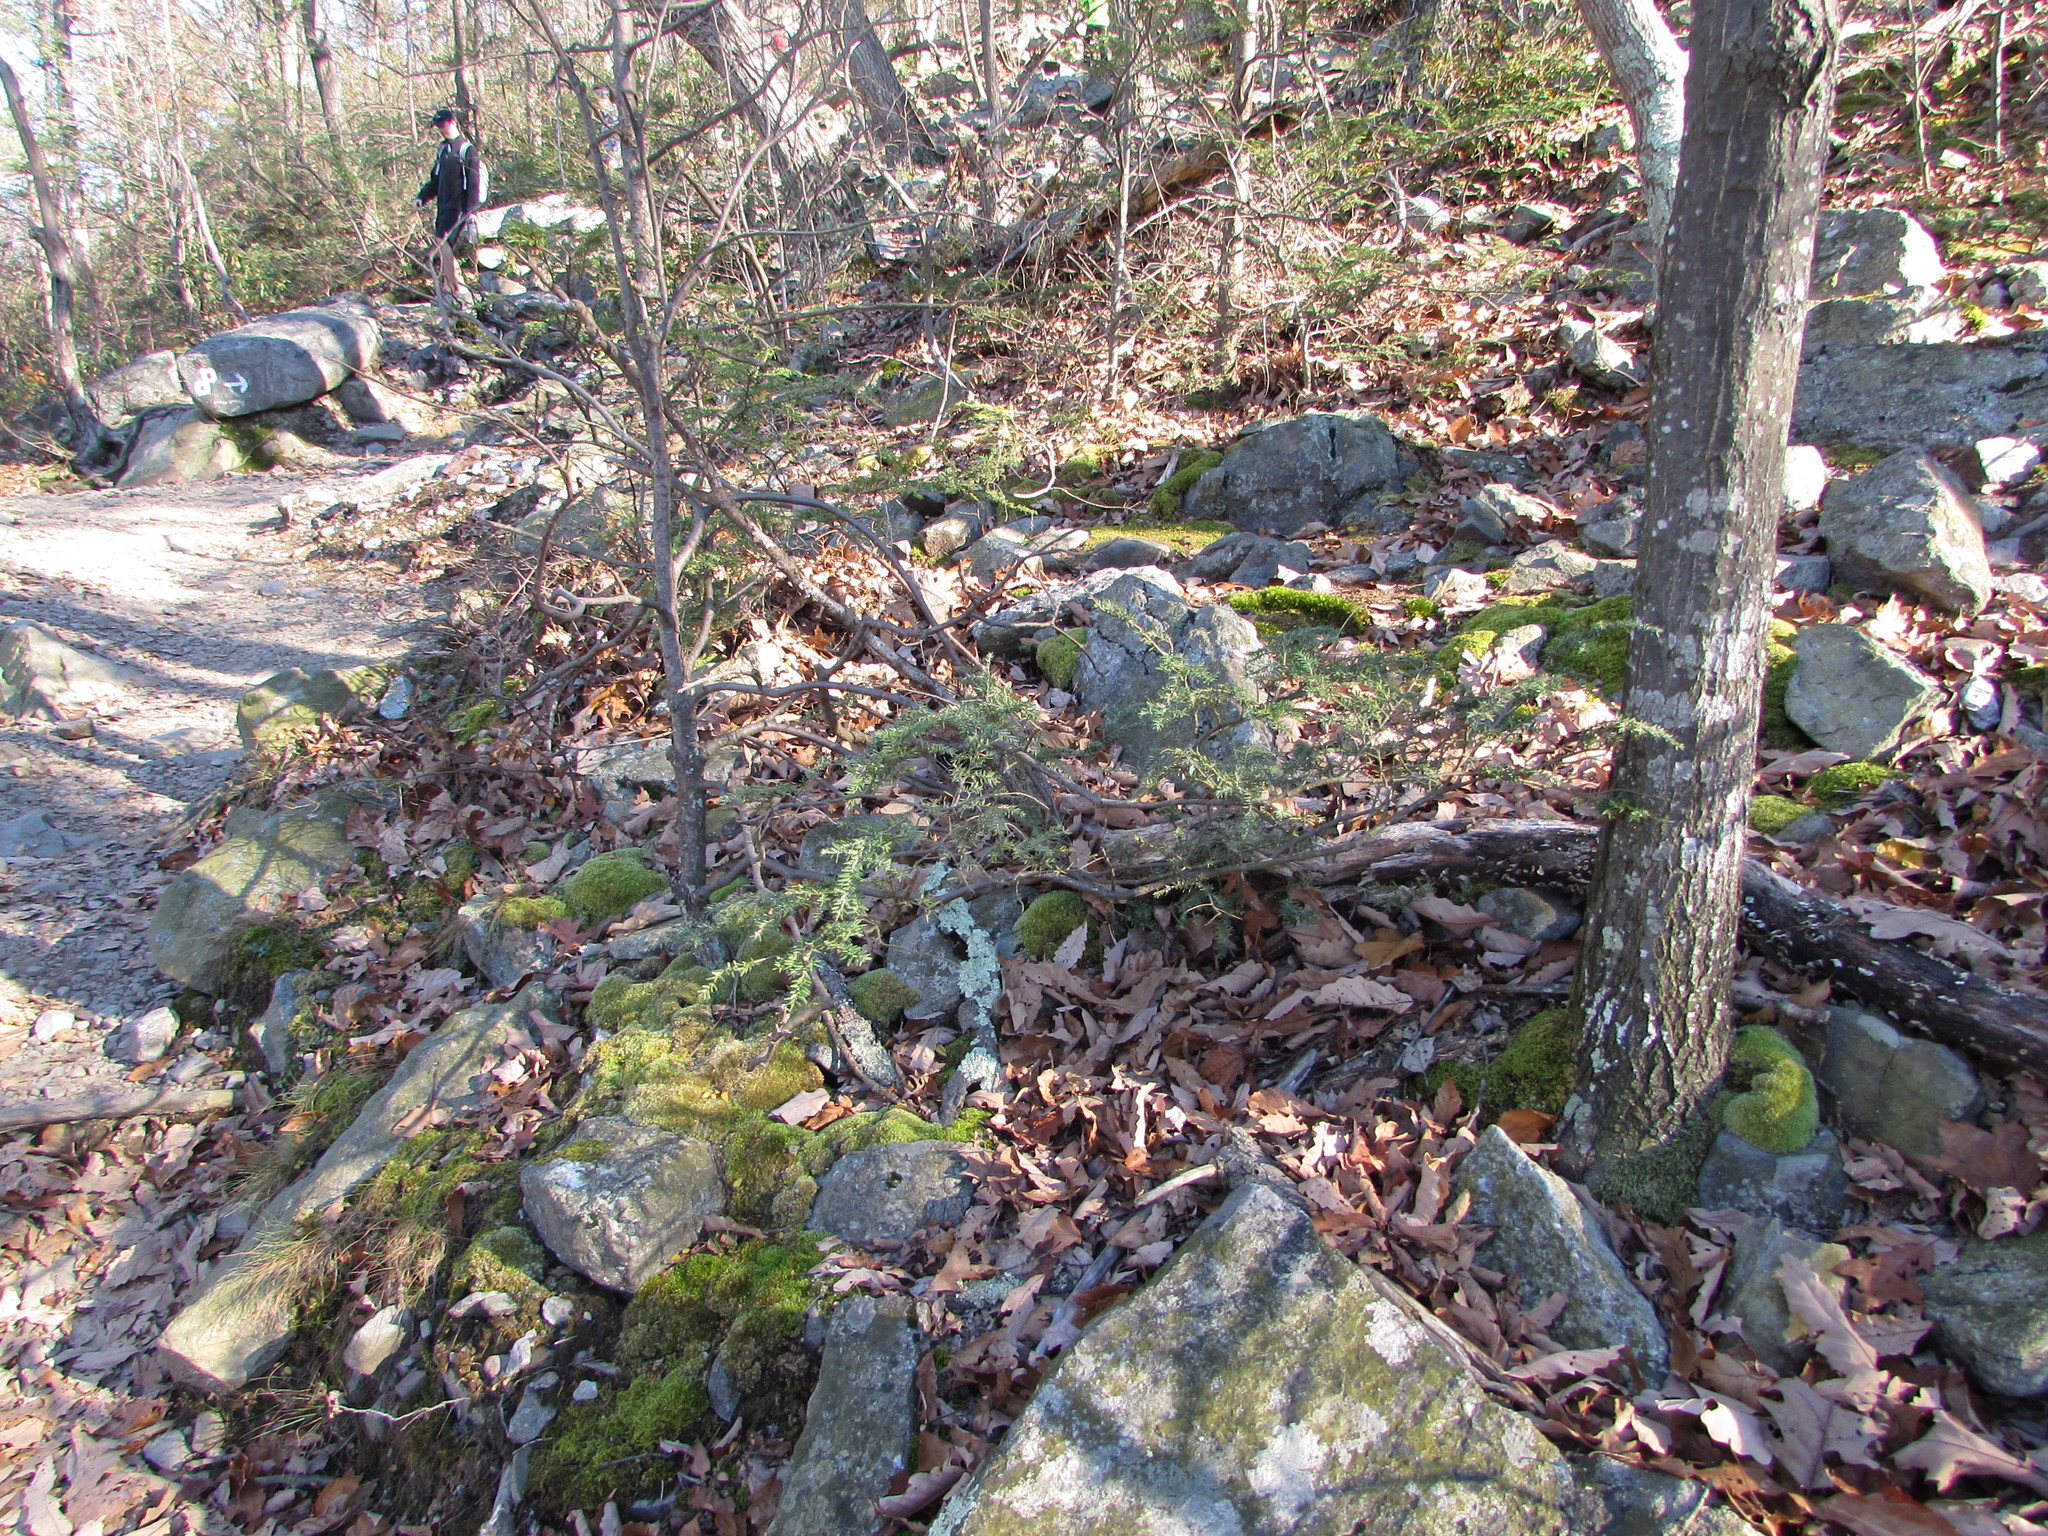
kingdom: Plantae
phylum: Tracheophyta
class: Pinopsida
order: Pinales
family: Pinaceae
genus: Tsuga
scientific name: Tsuga canadensis
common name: Eastern hemlock
